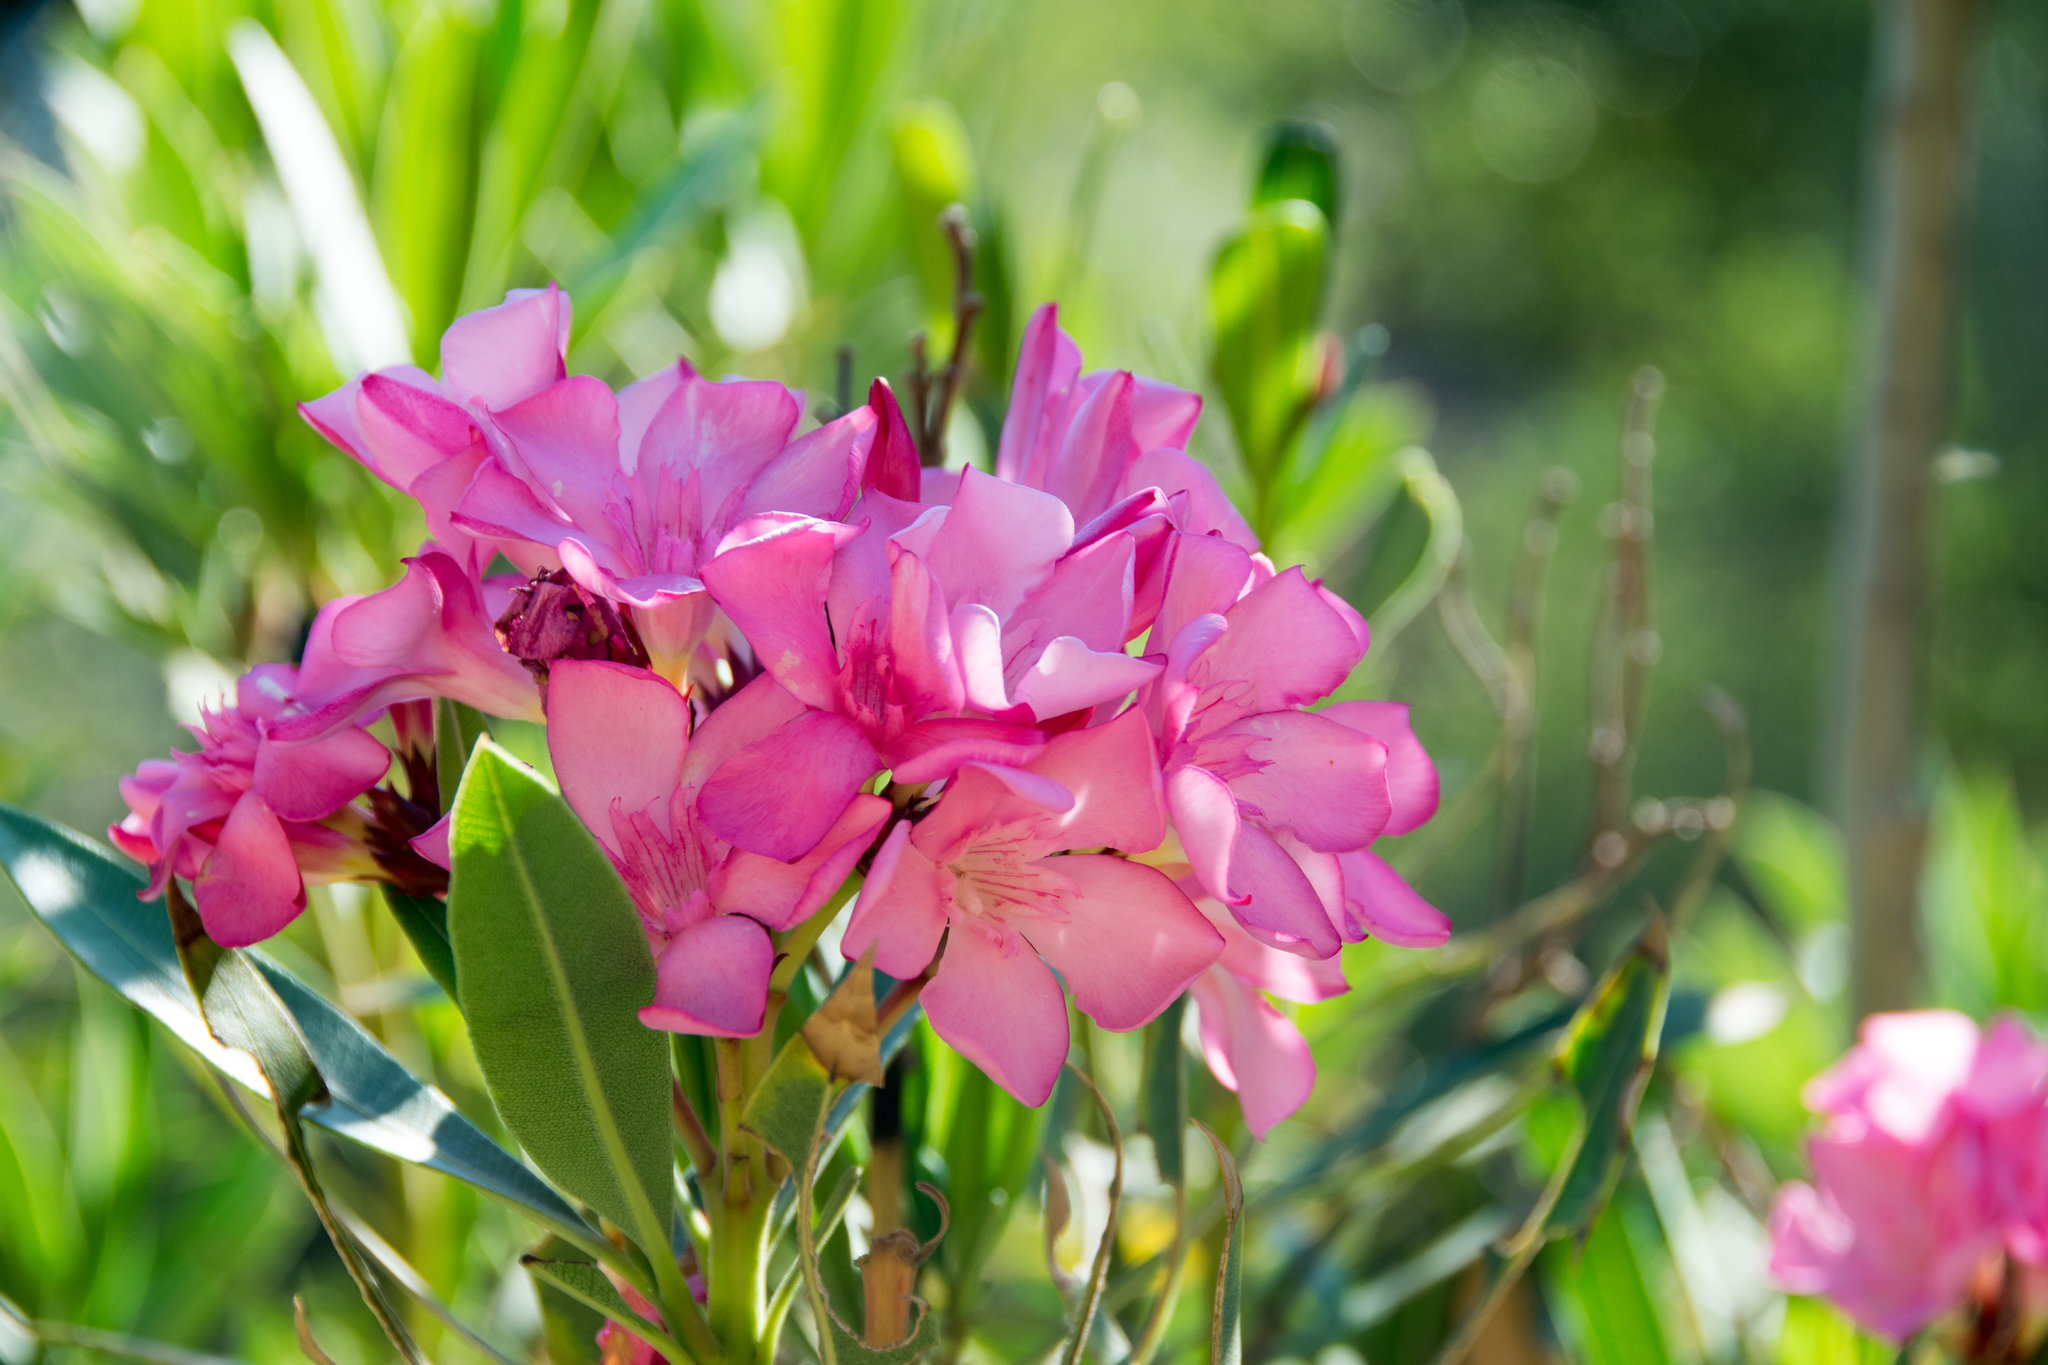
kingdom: Plantae
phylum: Tracheophyta
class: Magnoliopsida
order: Gentianales
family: Apocynaceae
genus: Nerium
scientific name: Nerium oleander
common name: Oleander
